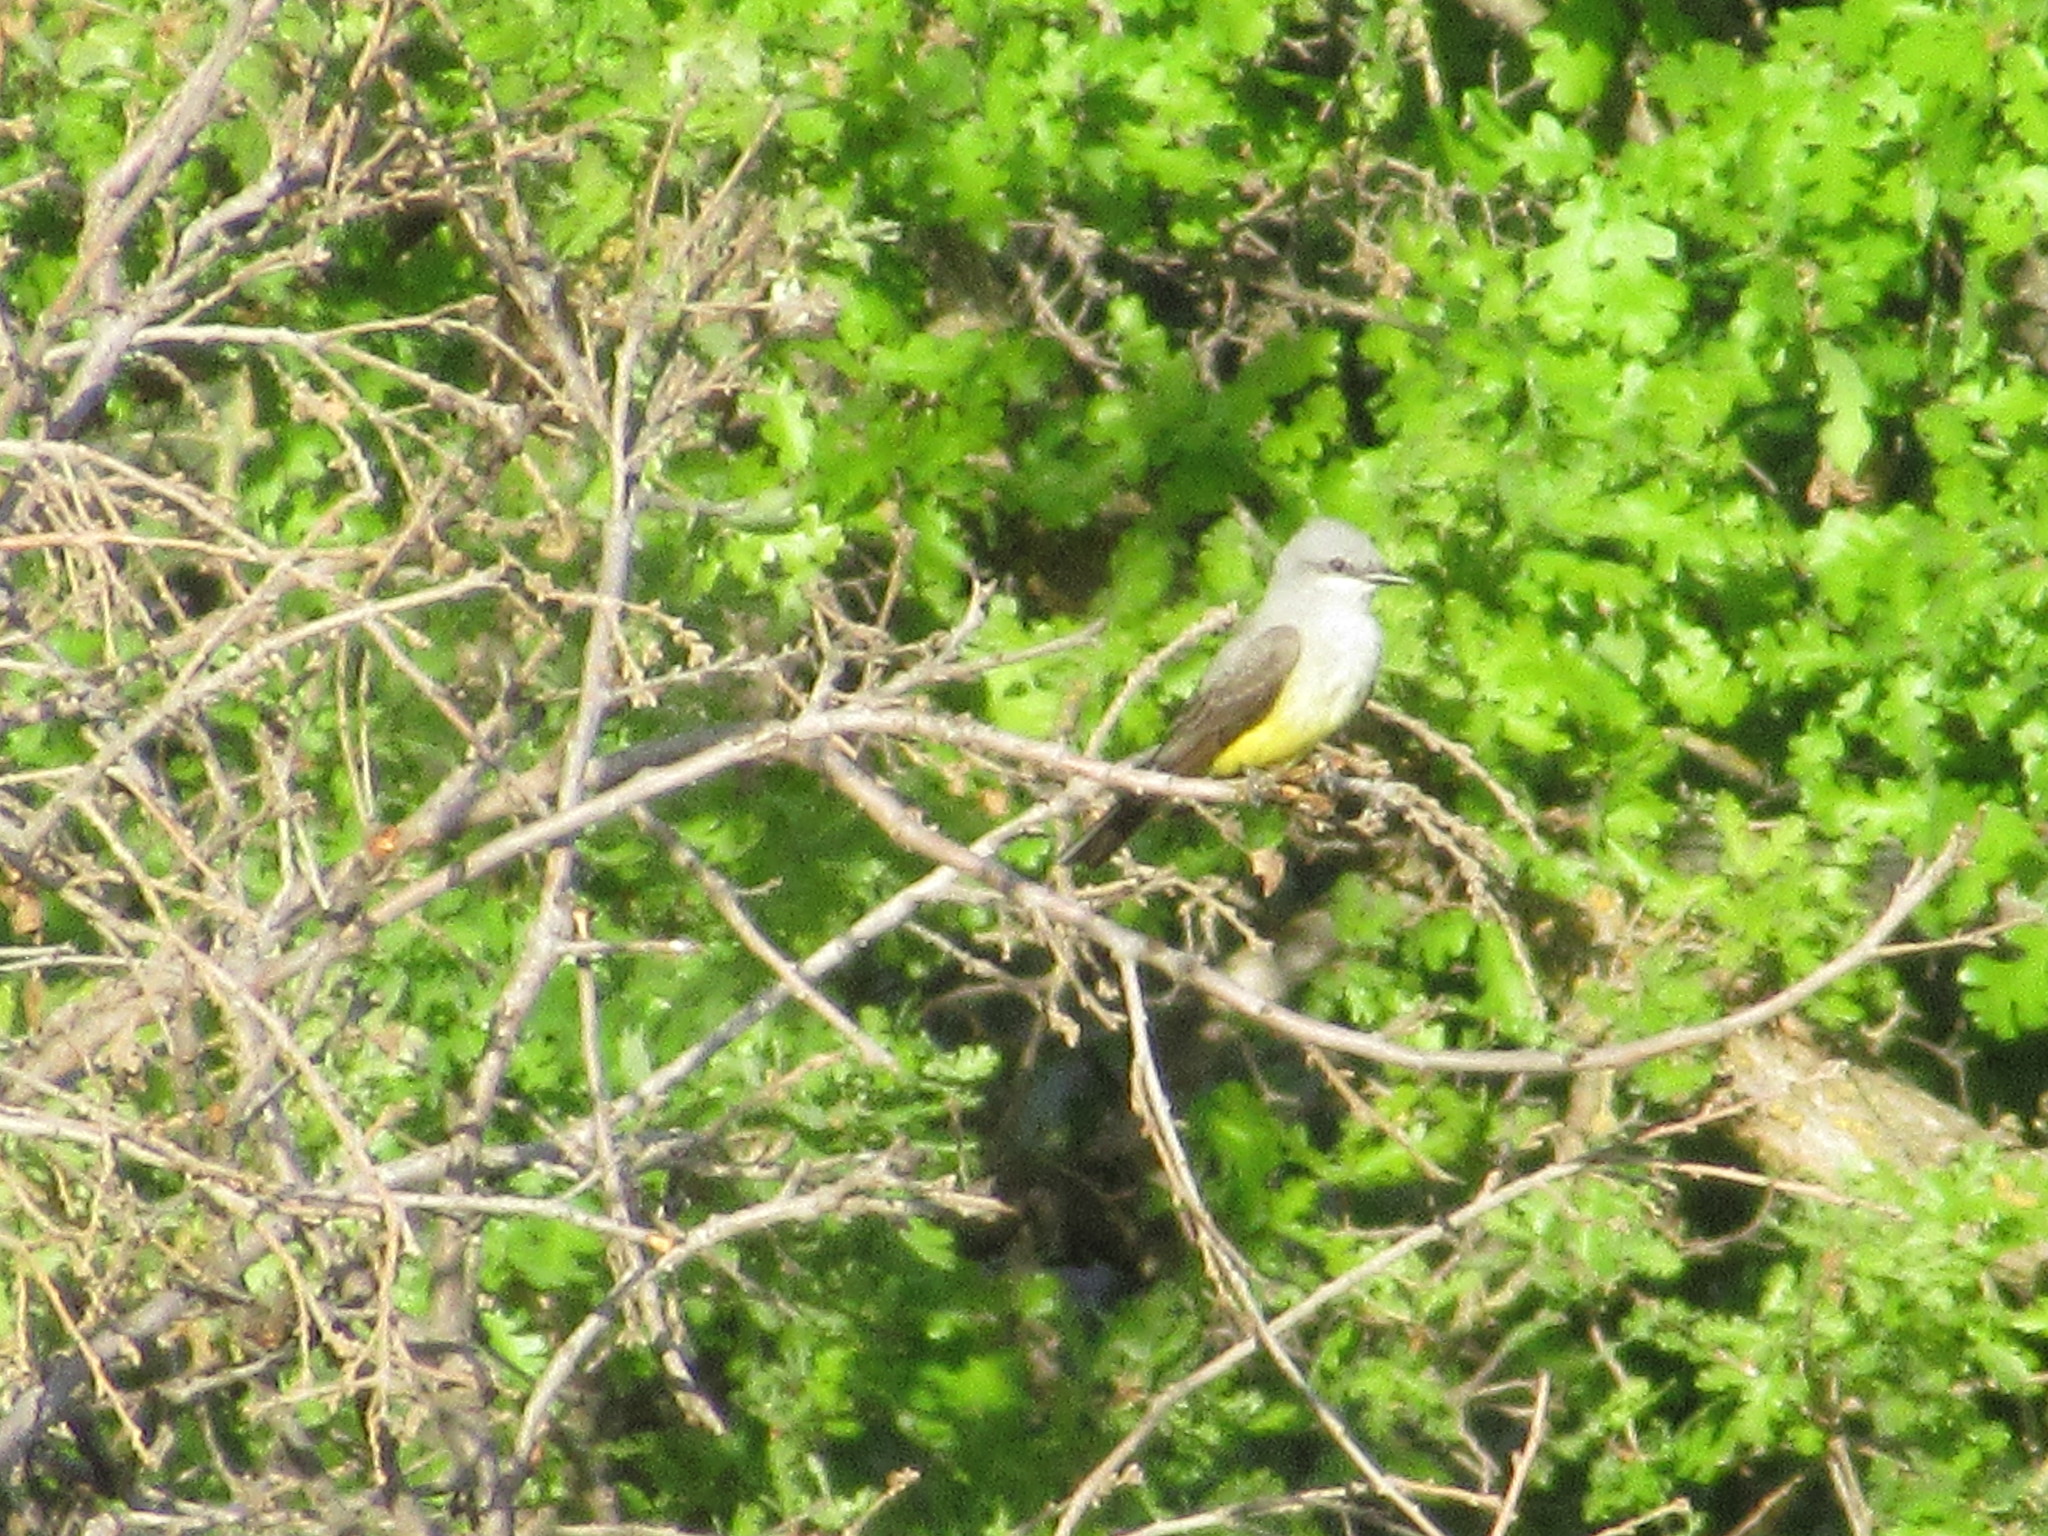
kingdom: Animalia
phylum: Chordata
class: Aves
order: Passeriformes
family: Tyrannidae
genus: Tyrannus
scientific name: Tyrannus verticalis
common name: Western kingbird
